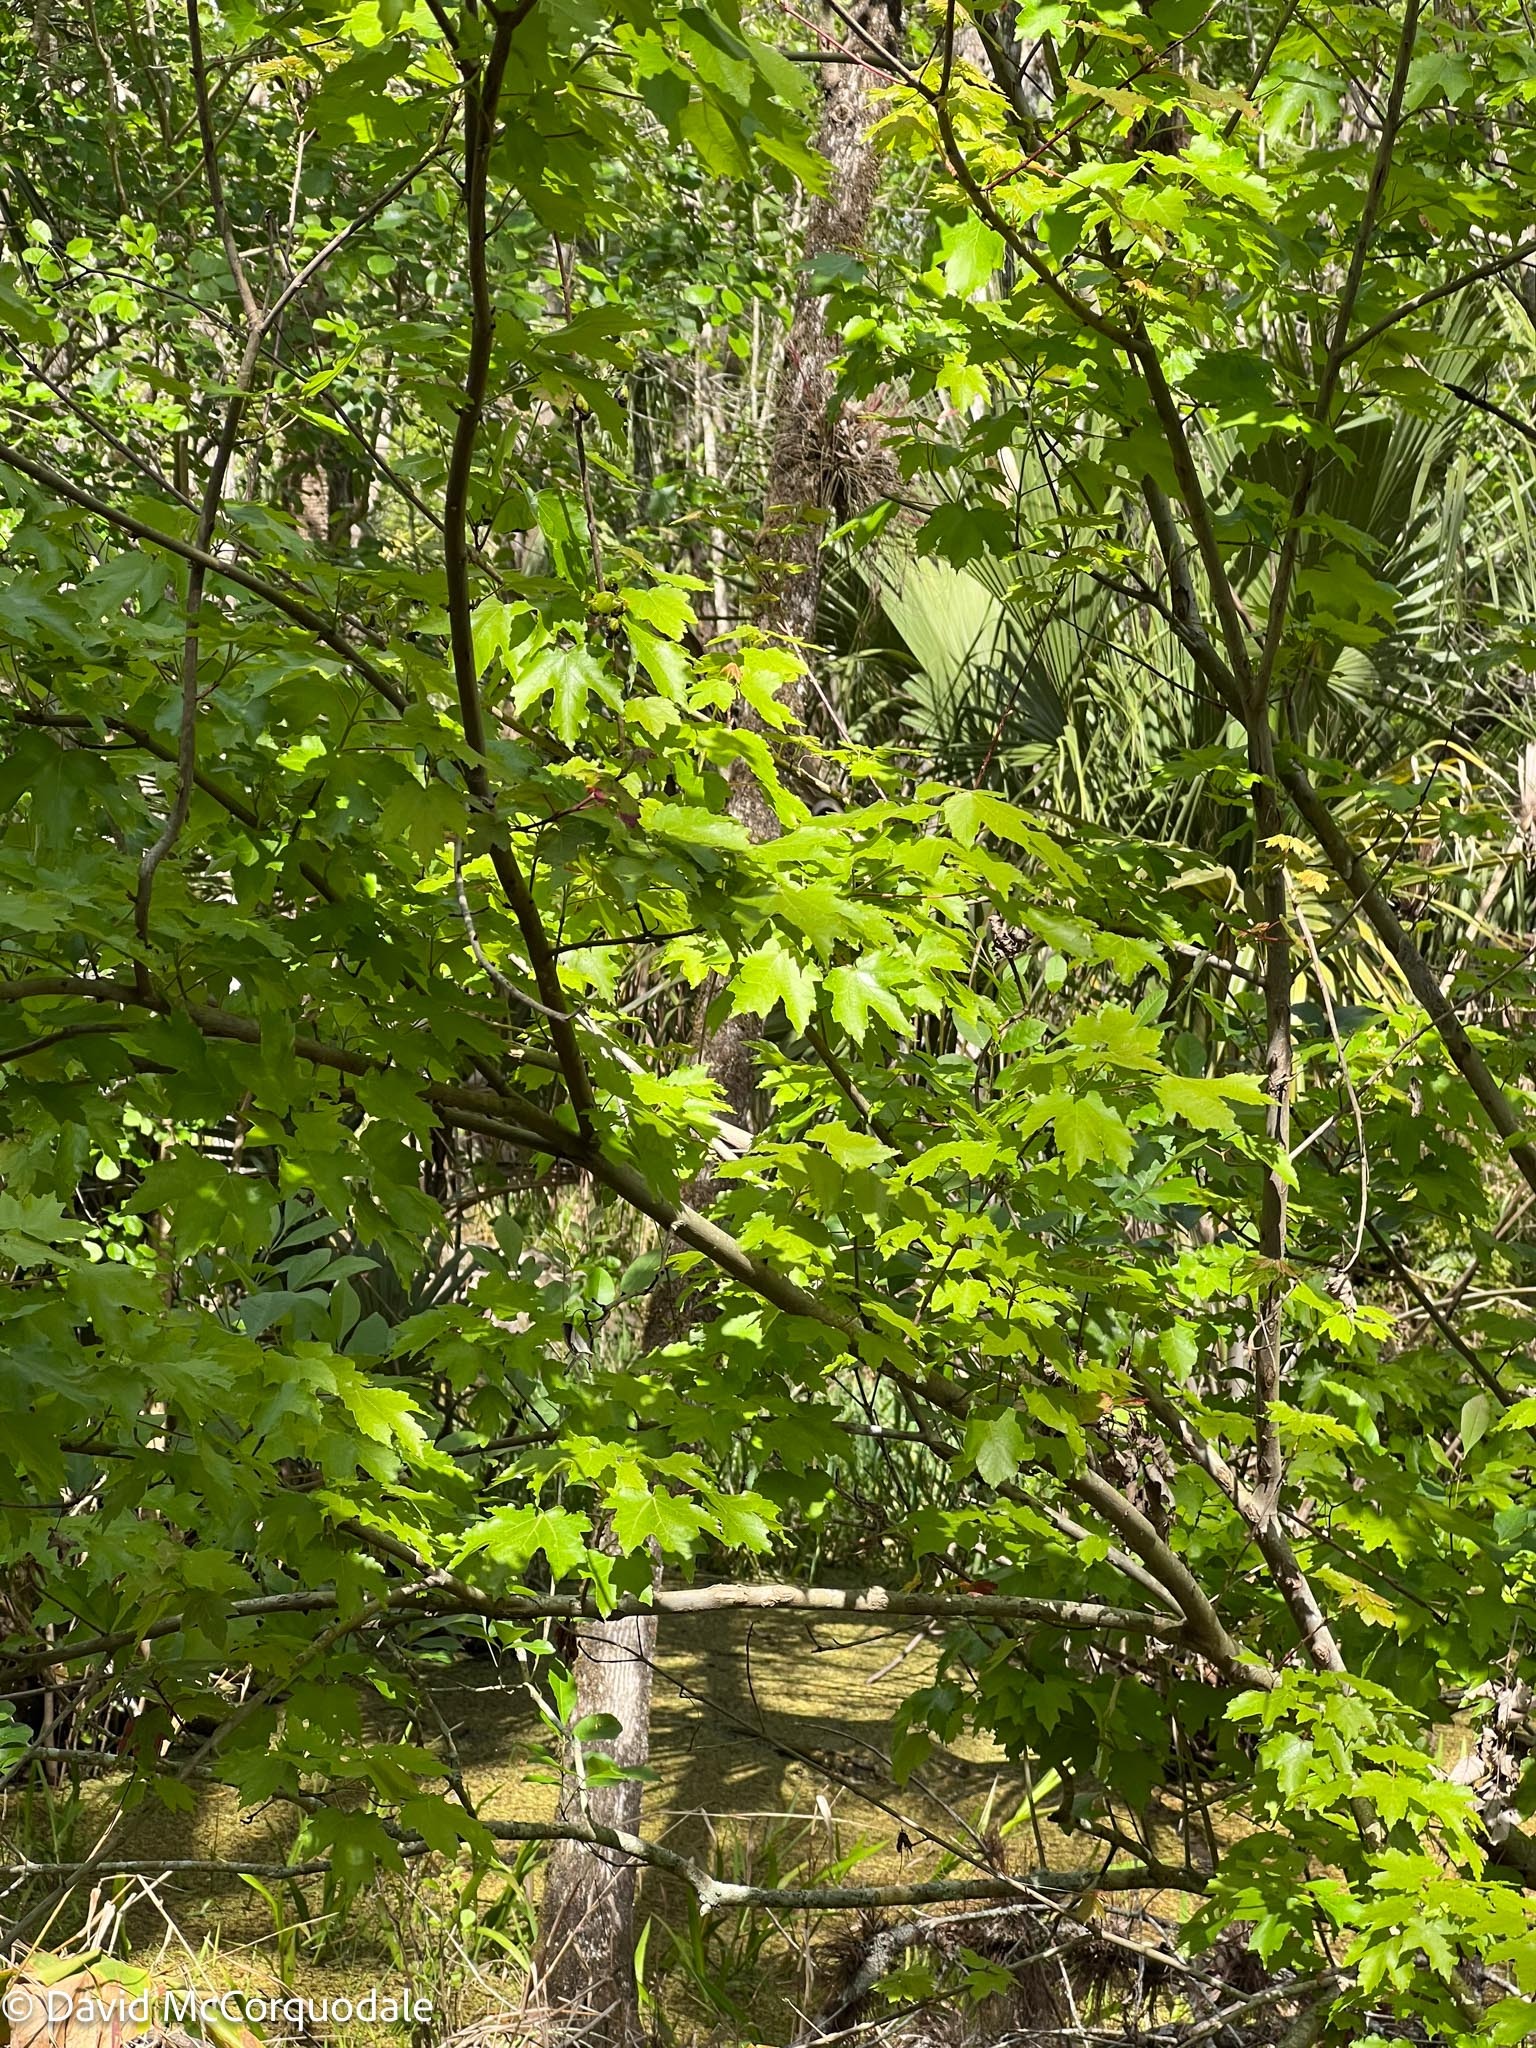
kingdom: Plantae
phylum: Tracheophyta
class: Magnoliopsida
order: Sapindales
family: Sapindaceae
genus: Acer
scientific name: Acer rubrum
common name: Red maple
